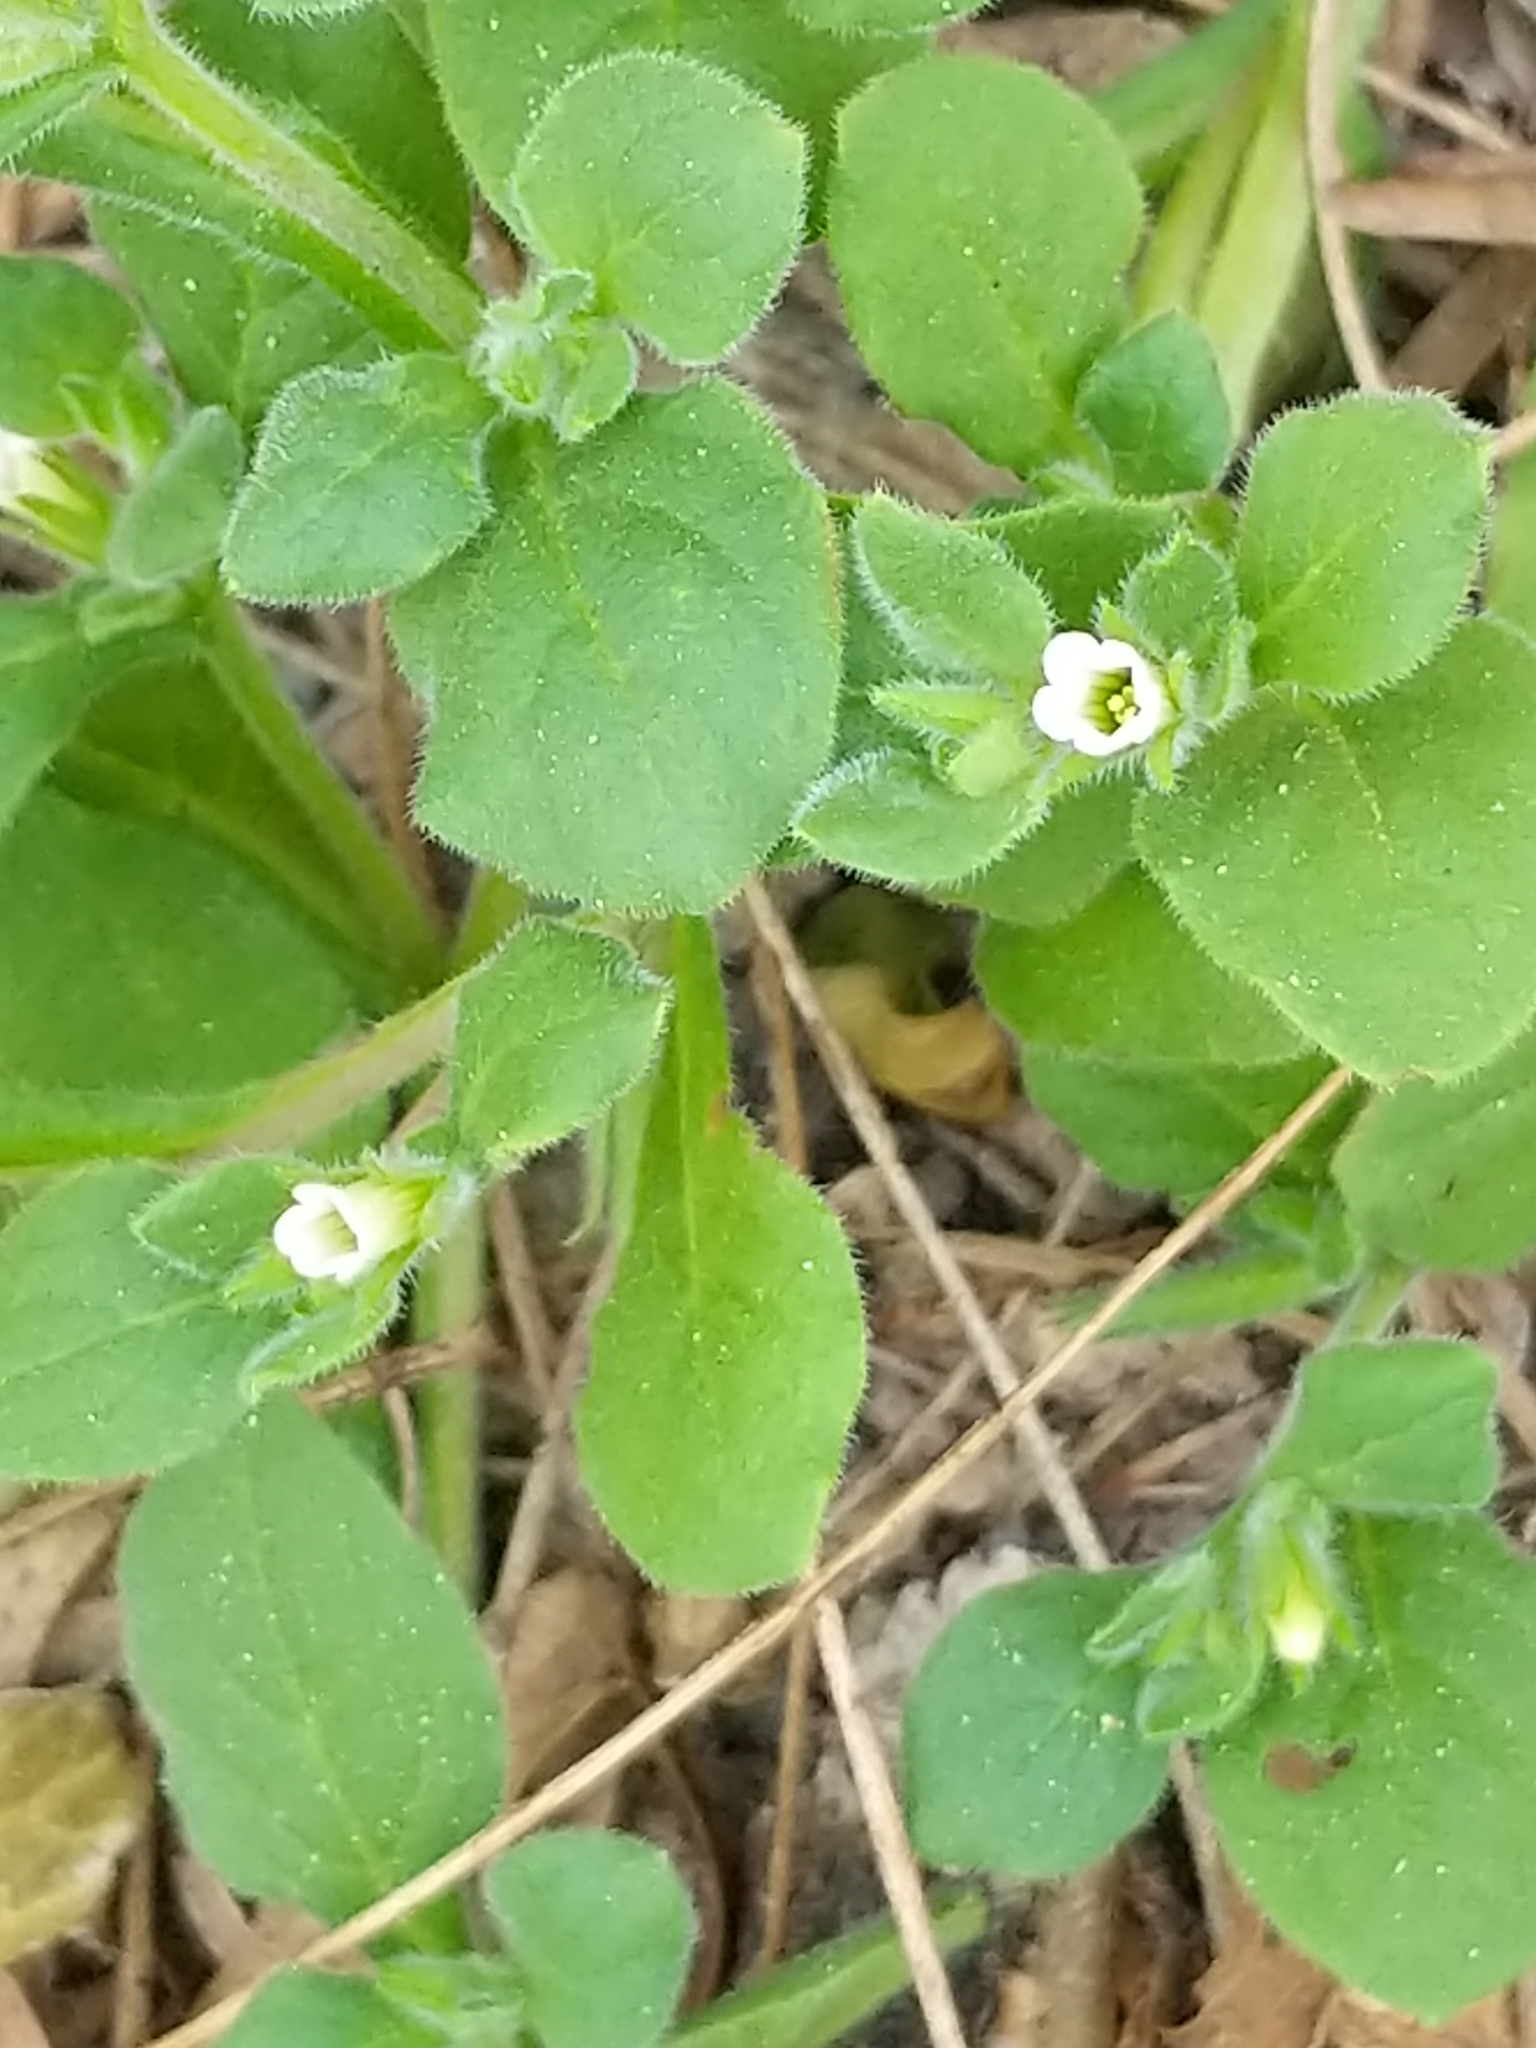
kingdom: Plantae
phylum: Tracheophyta
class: Magnoliopsida
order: Boraginales
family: Namaceae
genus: Nama
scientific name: Nama jamaicensis
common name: Jamaicanweed
